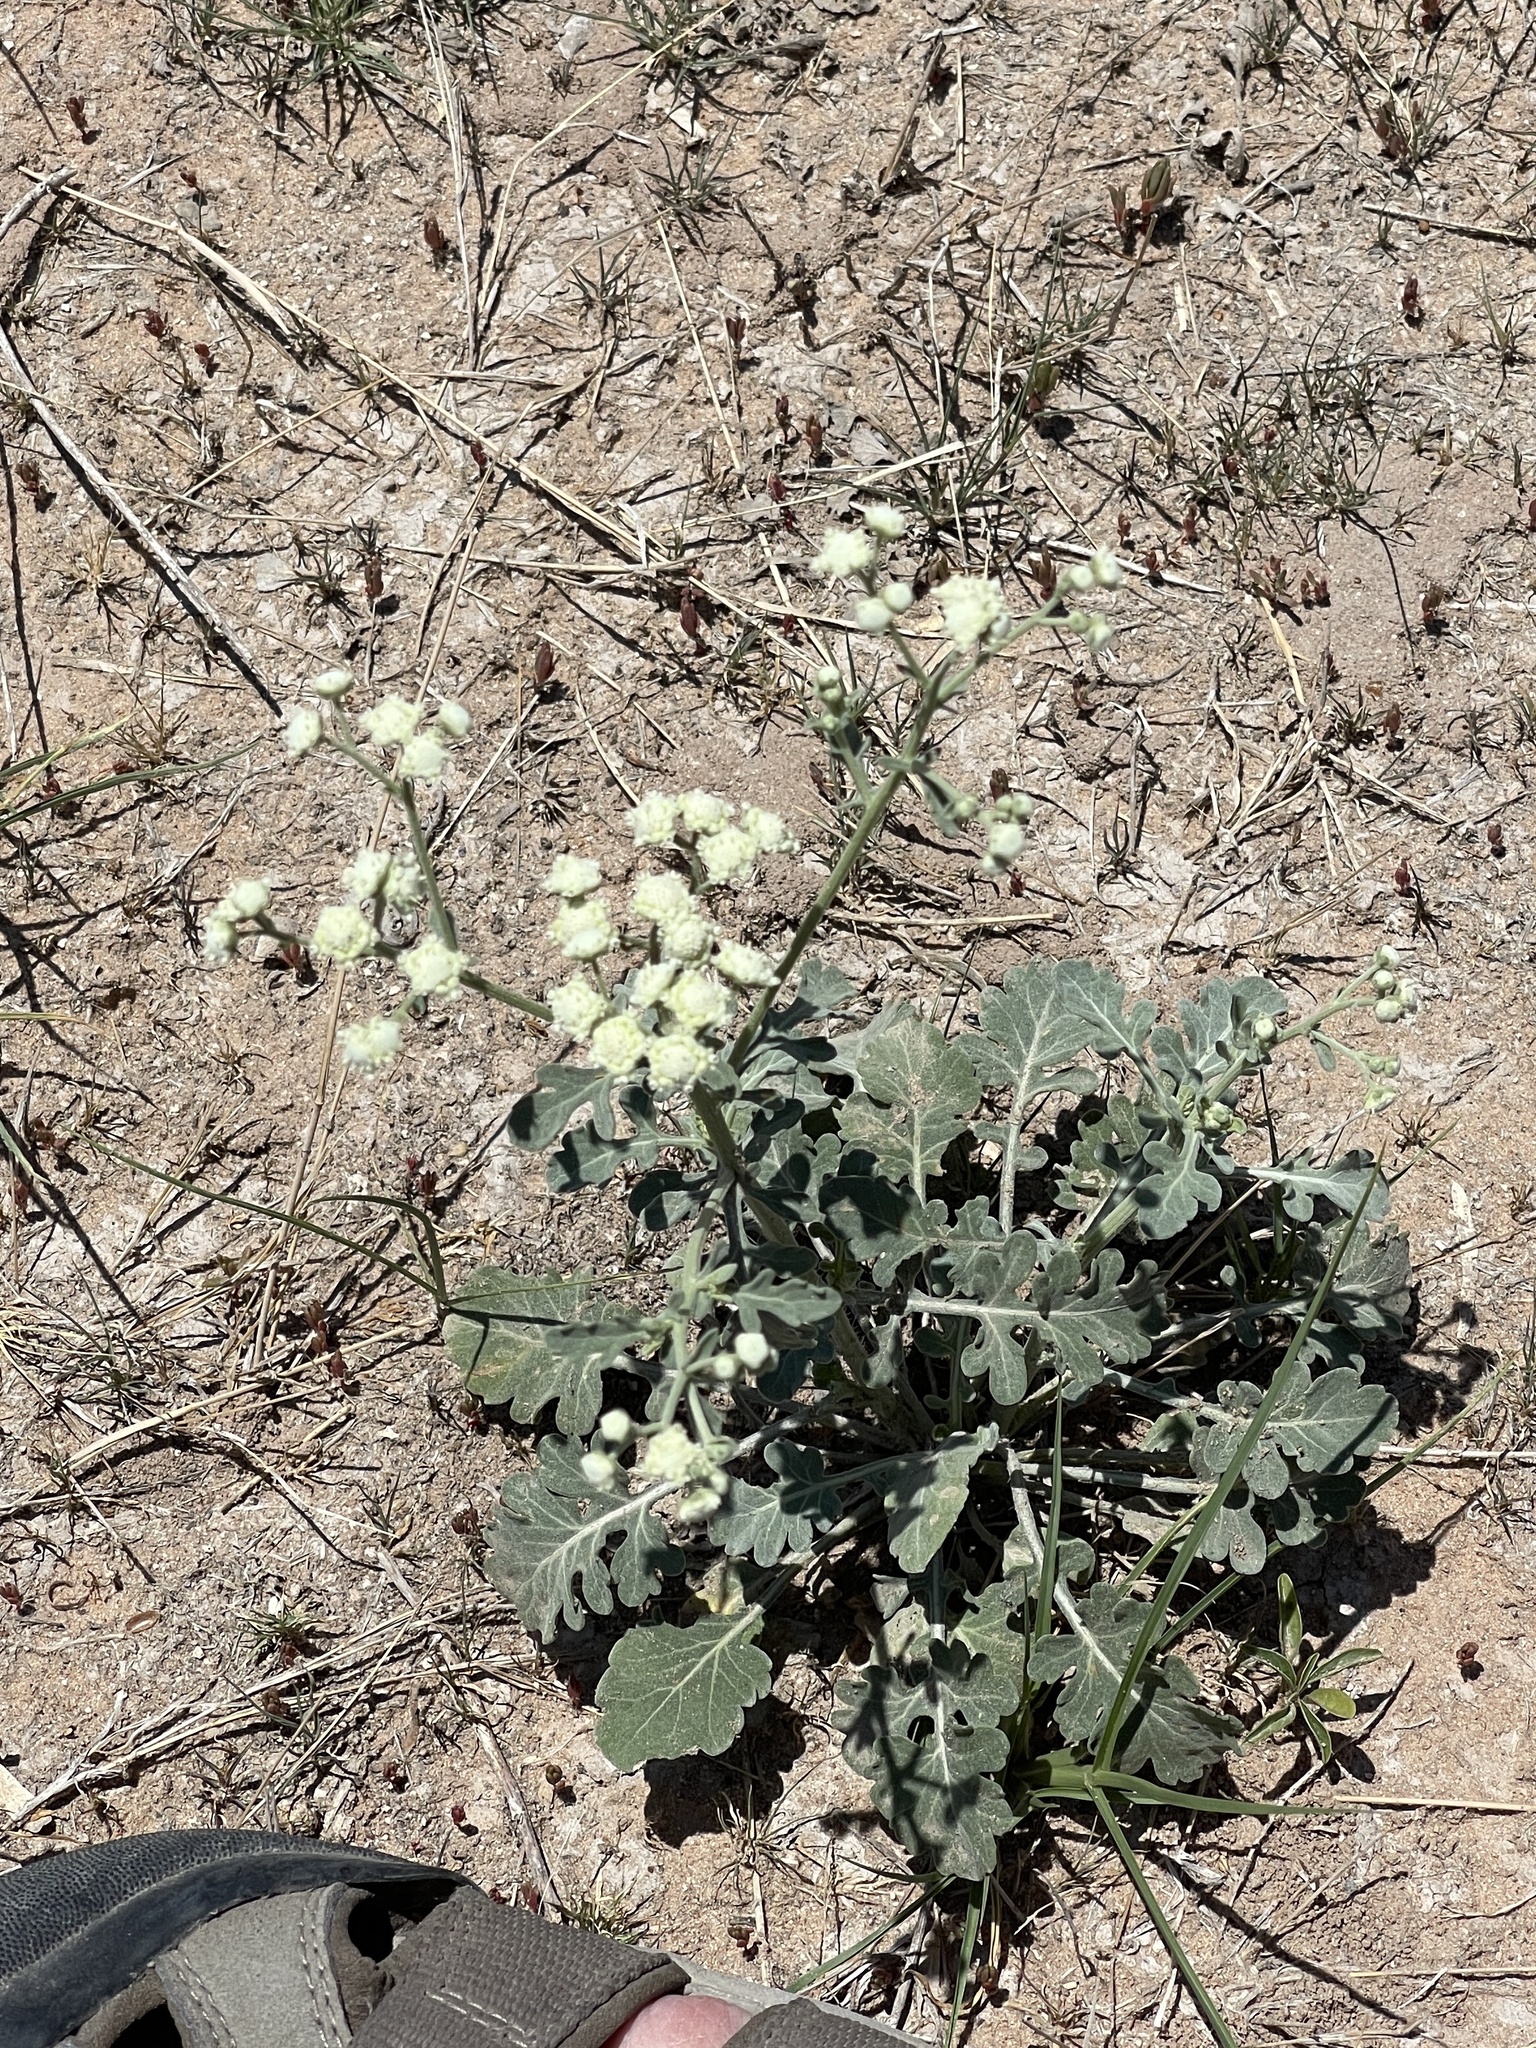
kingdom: Plantae
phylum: Tracheophyta
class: Magnoliopsida
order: Asterales
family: Asteraceae
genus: Parthenium
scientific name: Parthenium confertum
